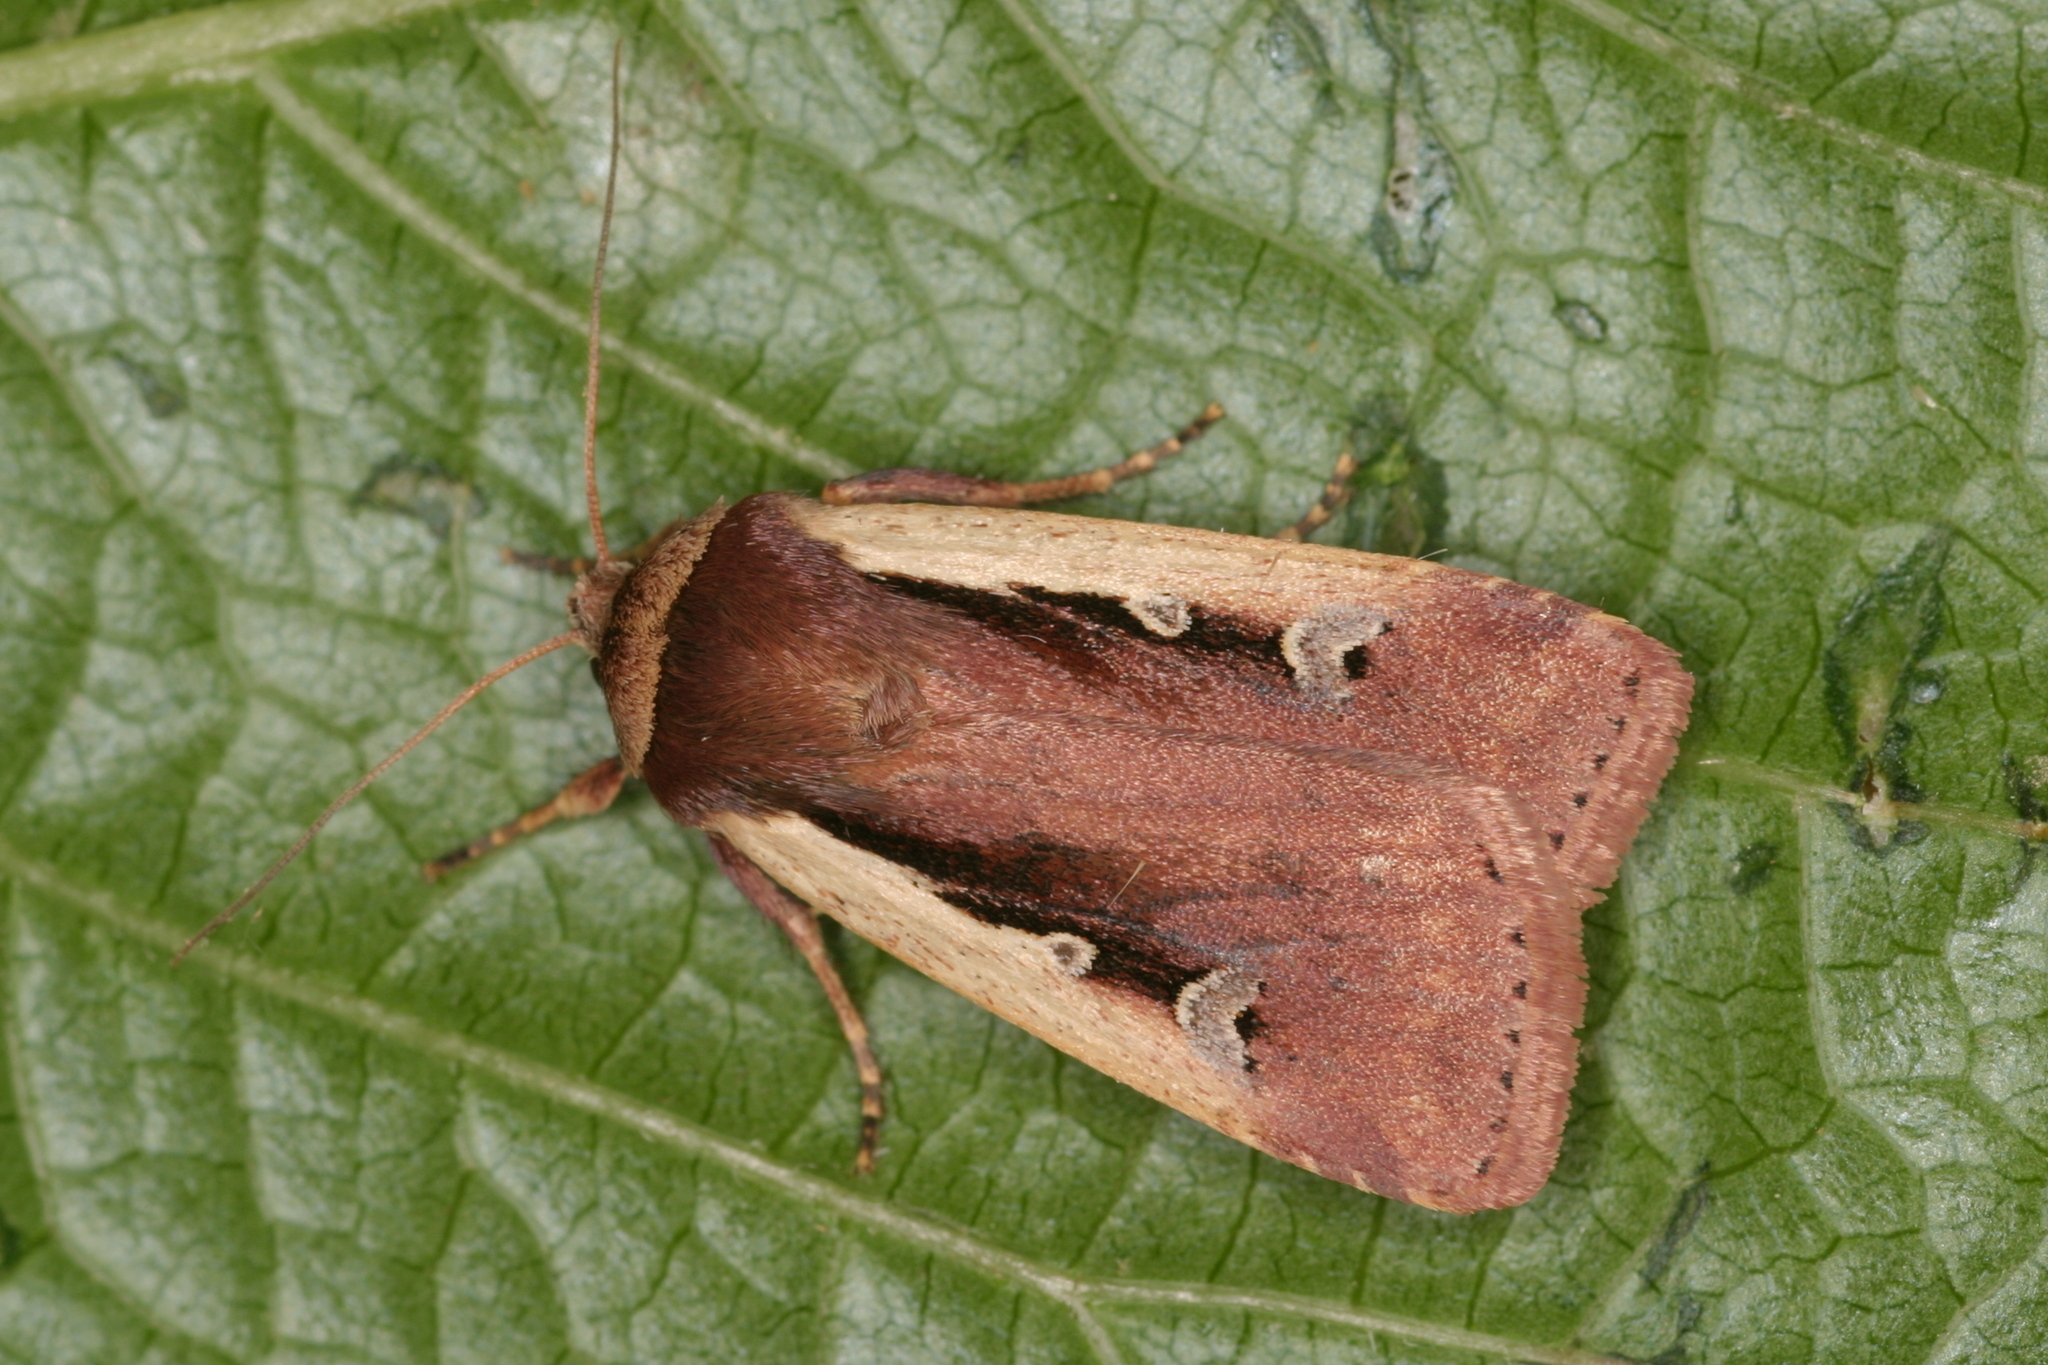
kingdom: Animalia
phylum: Arthropoda
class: Insecta
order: Lepidoptera
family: Noctuidae
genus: Ochropleura
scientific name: Ochropleura plecta
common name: Flame shoulder
